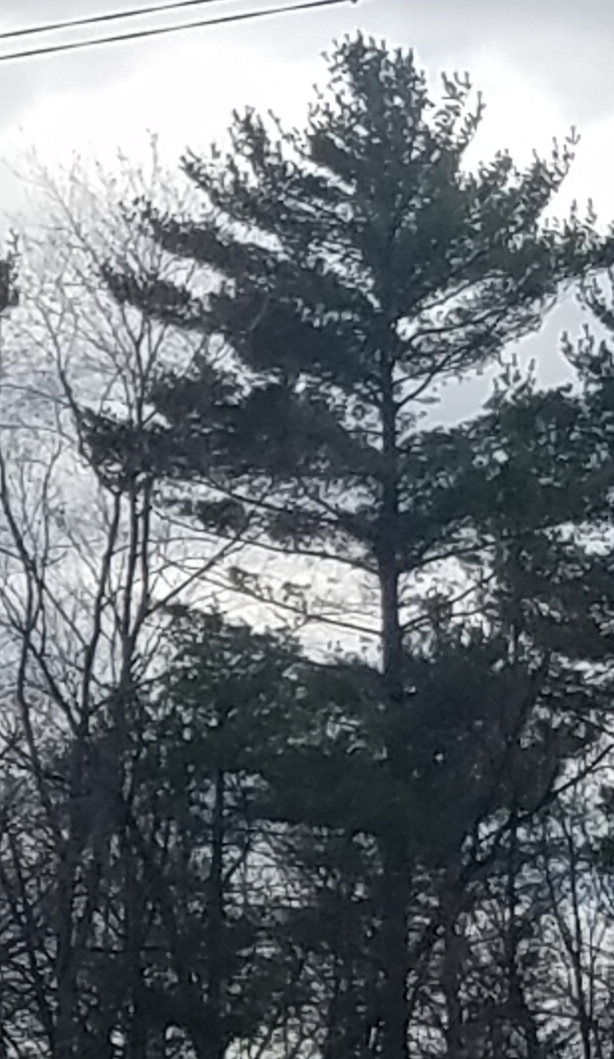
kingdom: Plantae
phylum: Tracheophyta
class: Pinopsida
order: Pinales
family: Pinaceae
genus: Pinus
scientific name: Pinus strobus
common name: Weymouth pine
